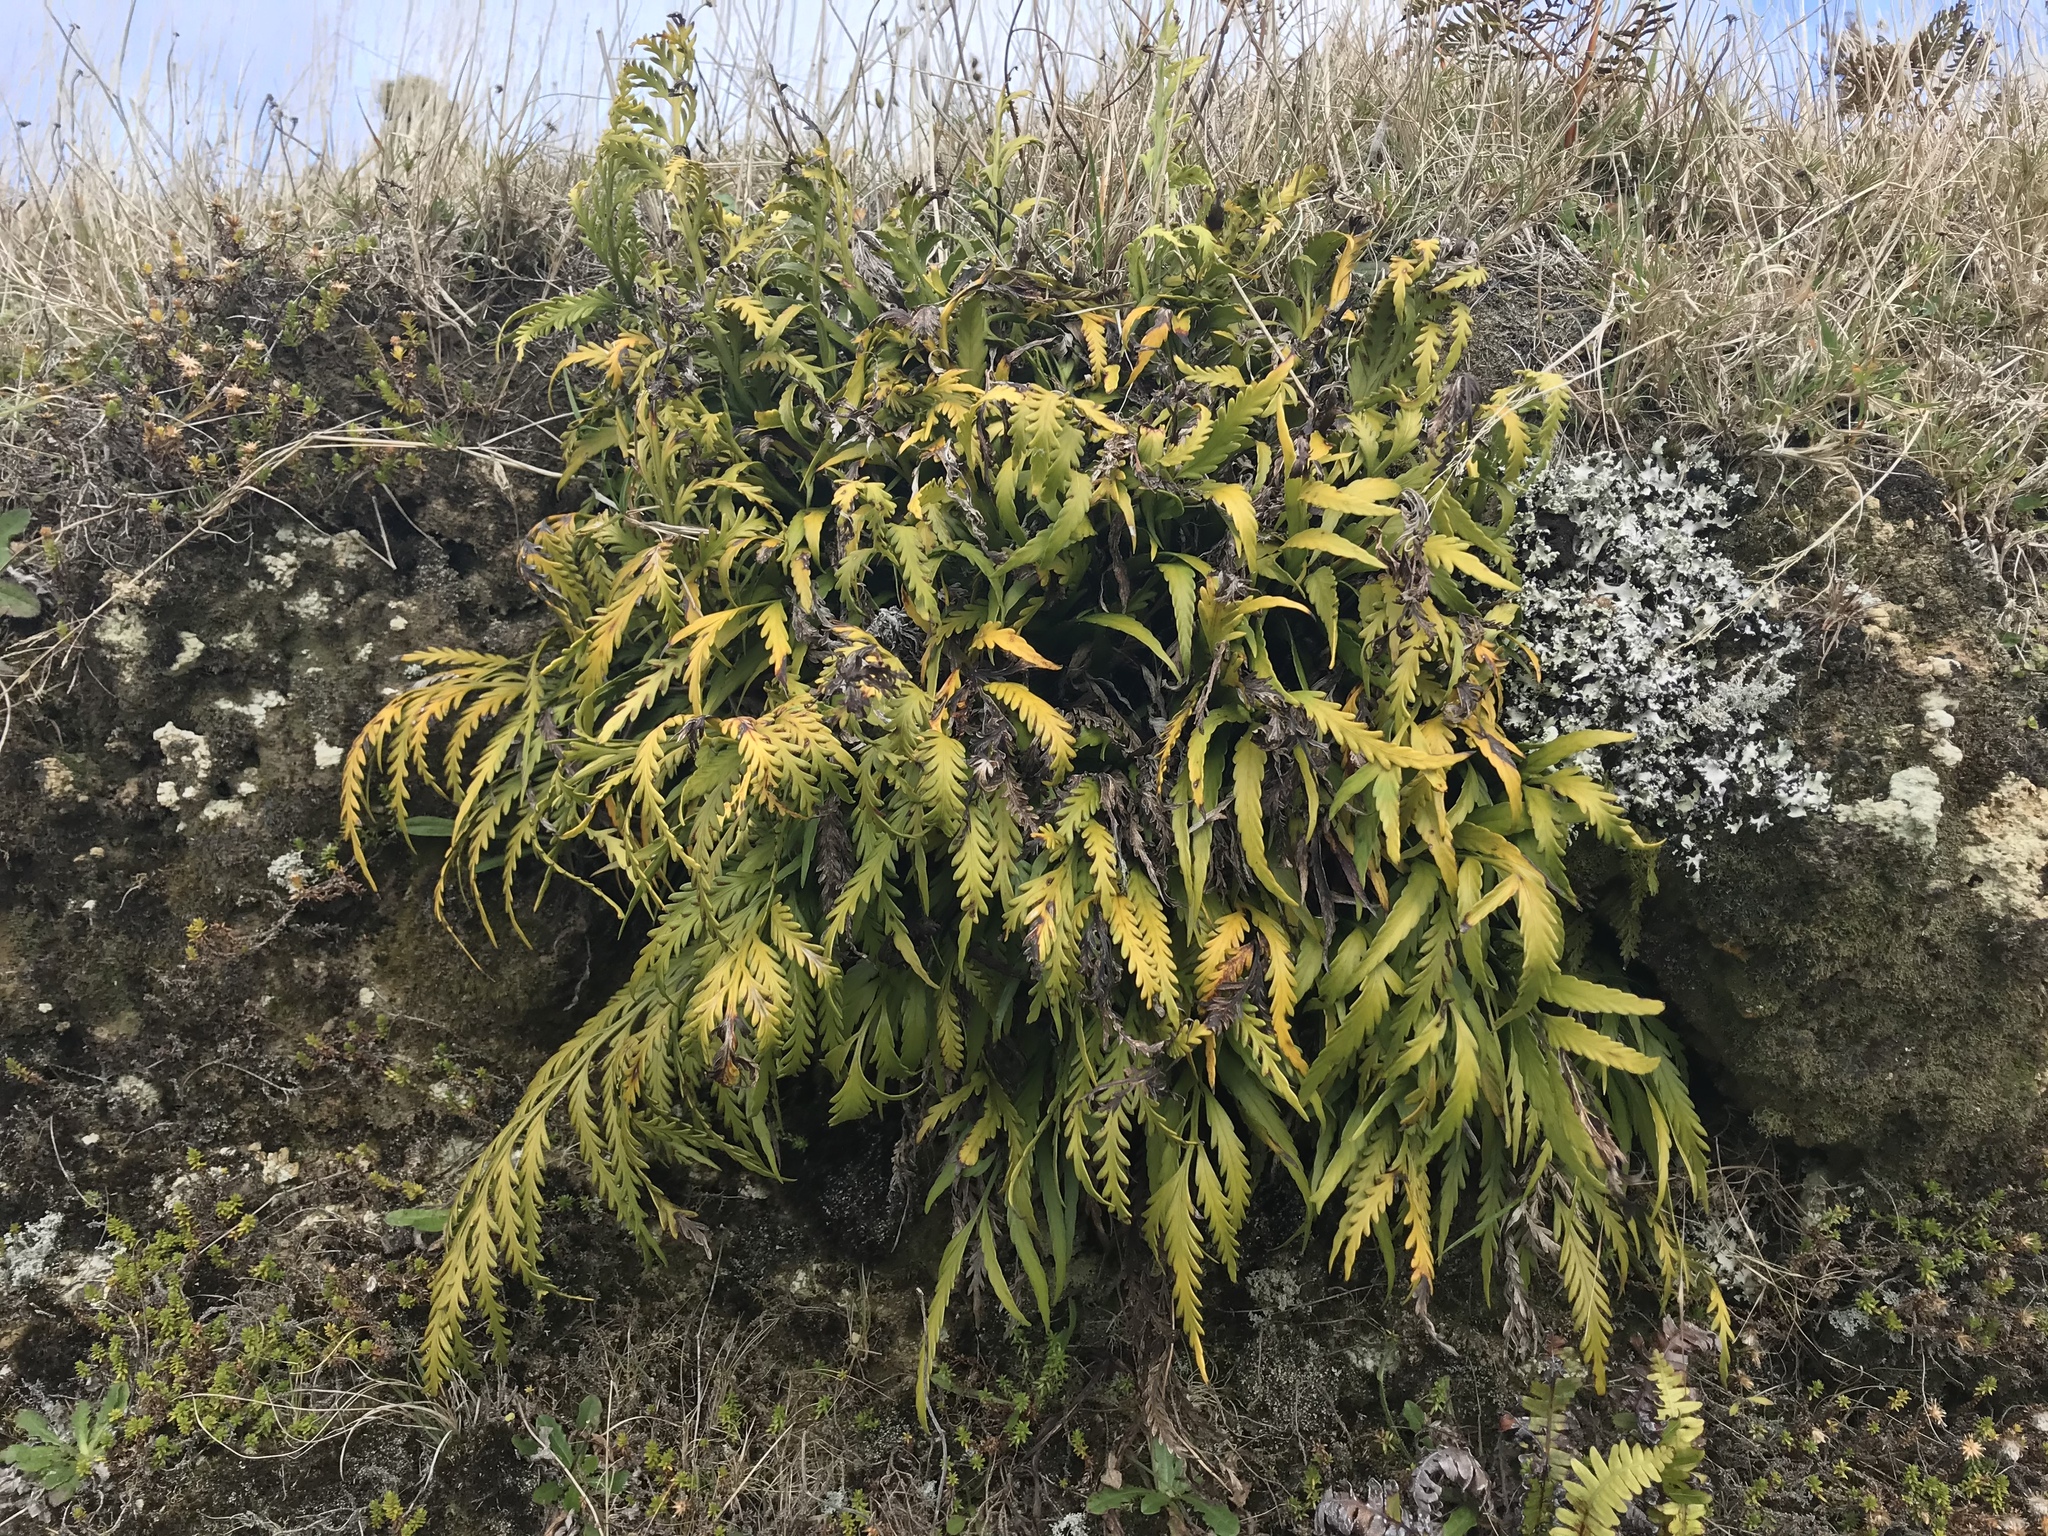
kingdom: Plantae
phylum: Tracheophyta
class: Polypodiopsida
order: Polypodiales
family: Aspleniaceae
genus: Asplenium
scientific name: Asplenium flaccidum
